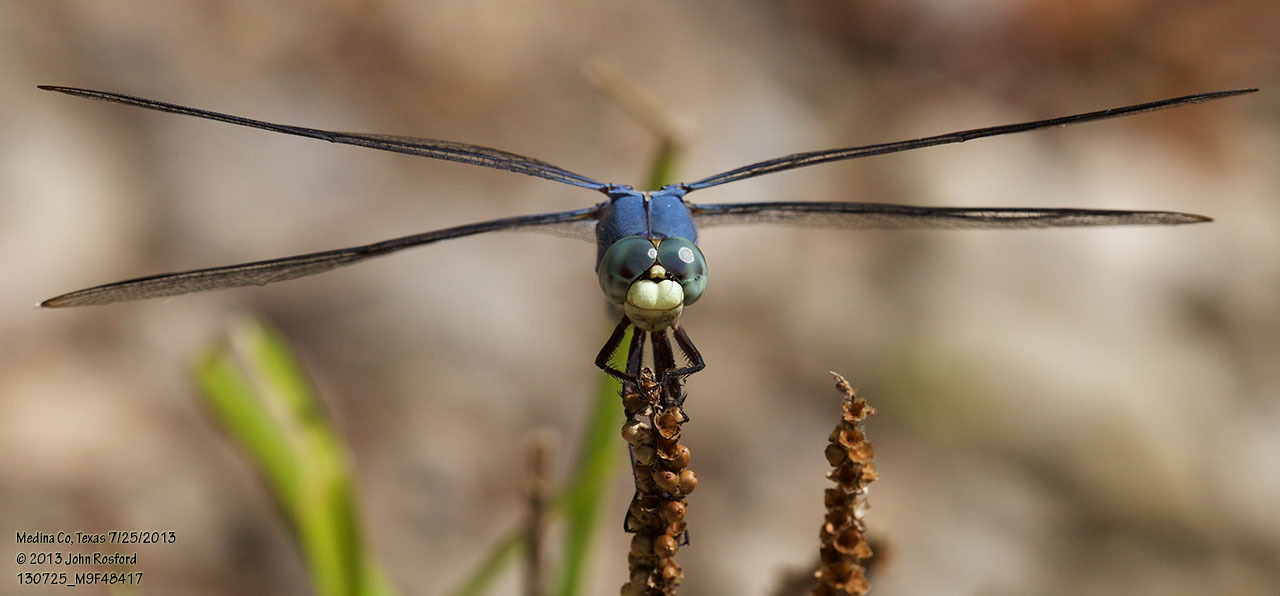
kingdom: Animalia
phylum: Arthropoda
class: Insecta
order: Odonata
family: Libellulidae
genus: Libellula
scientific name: Libellula comanche
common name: Comanche skimmer
